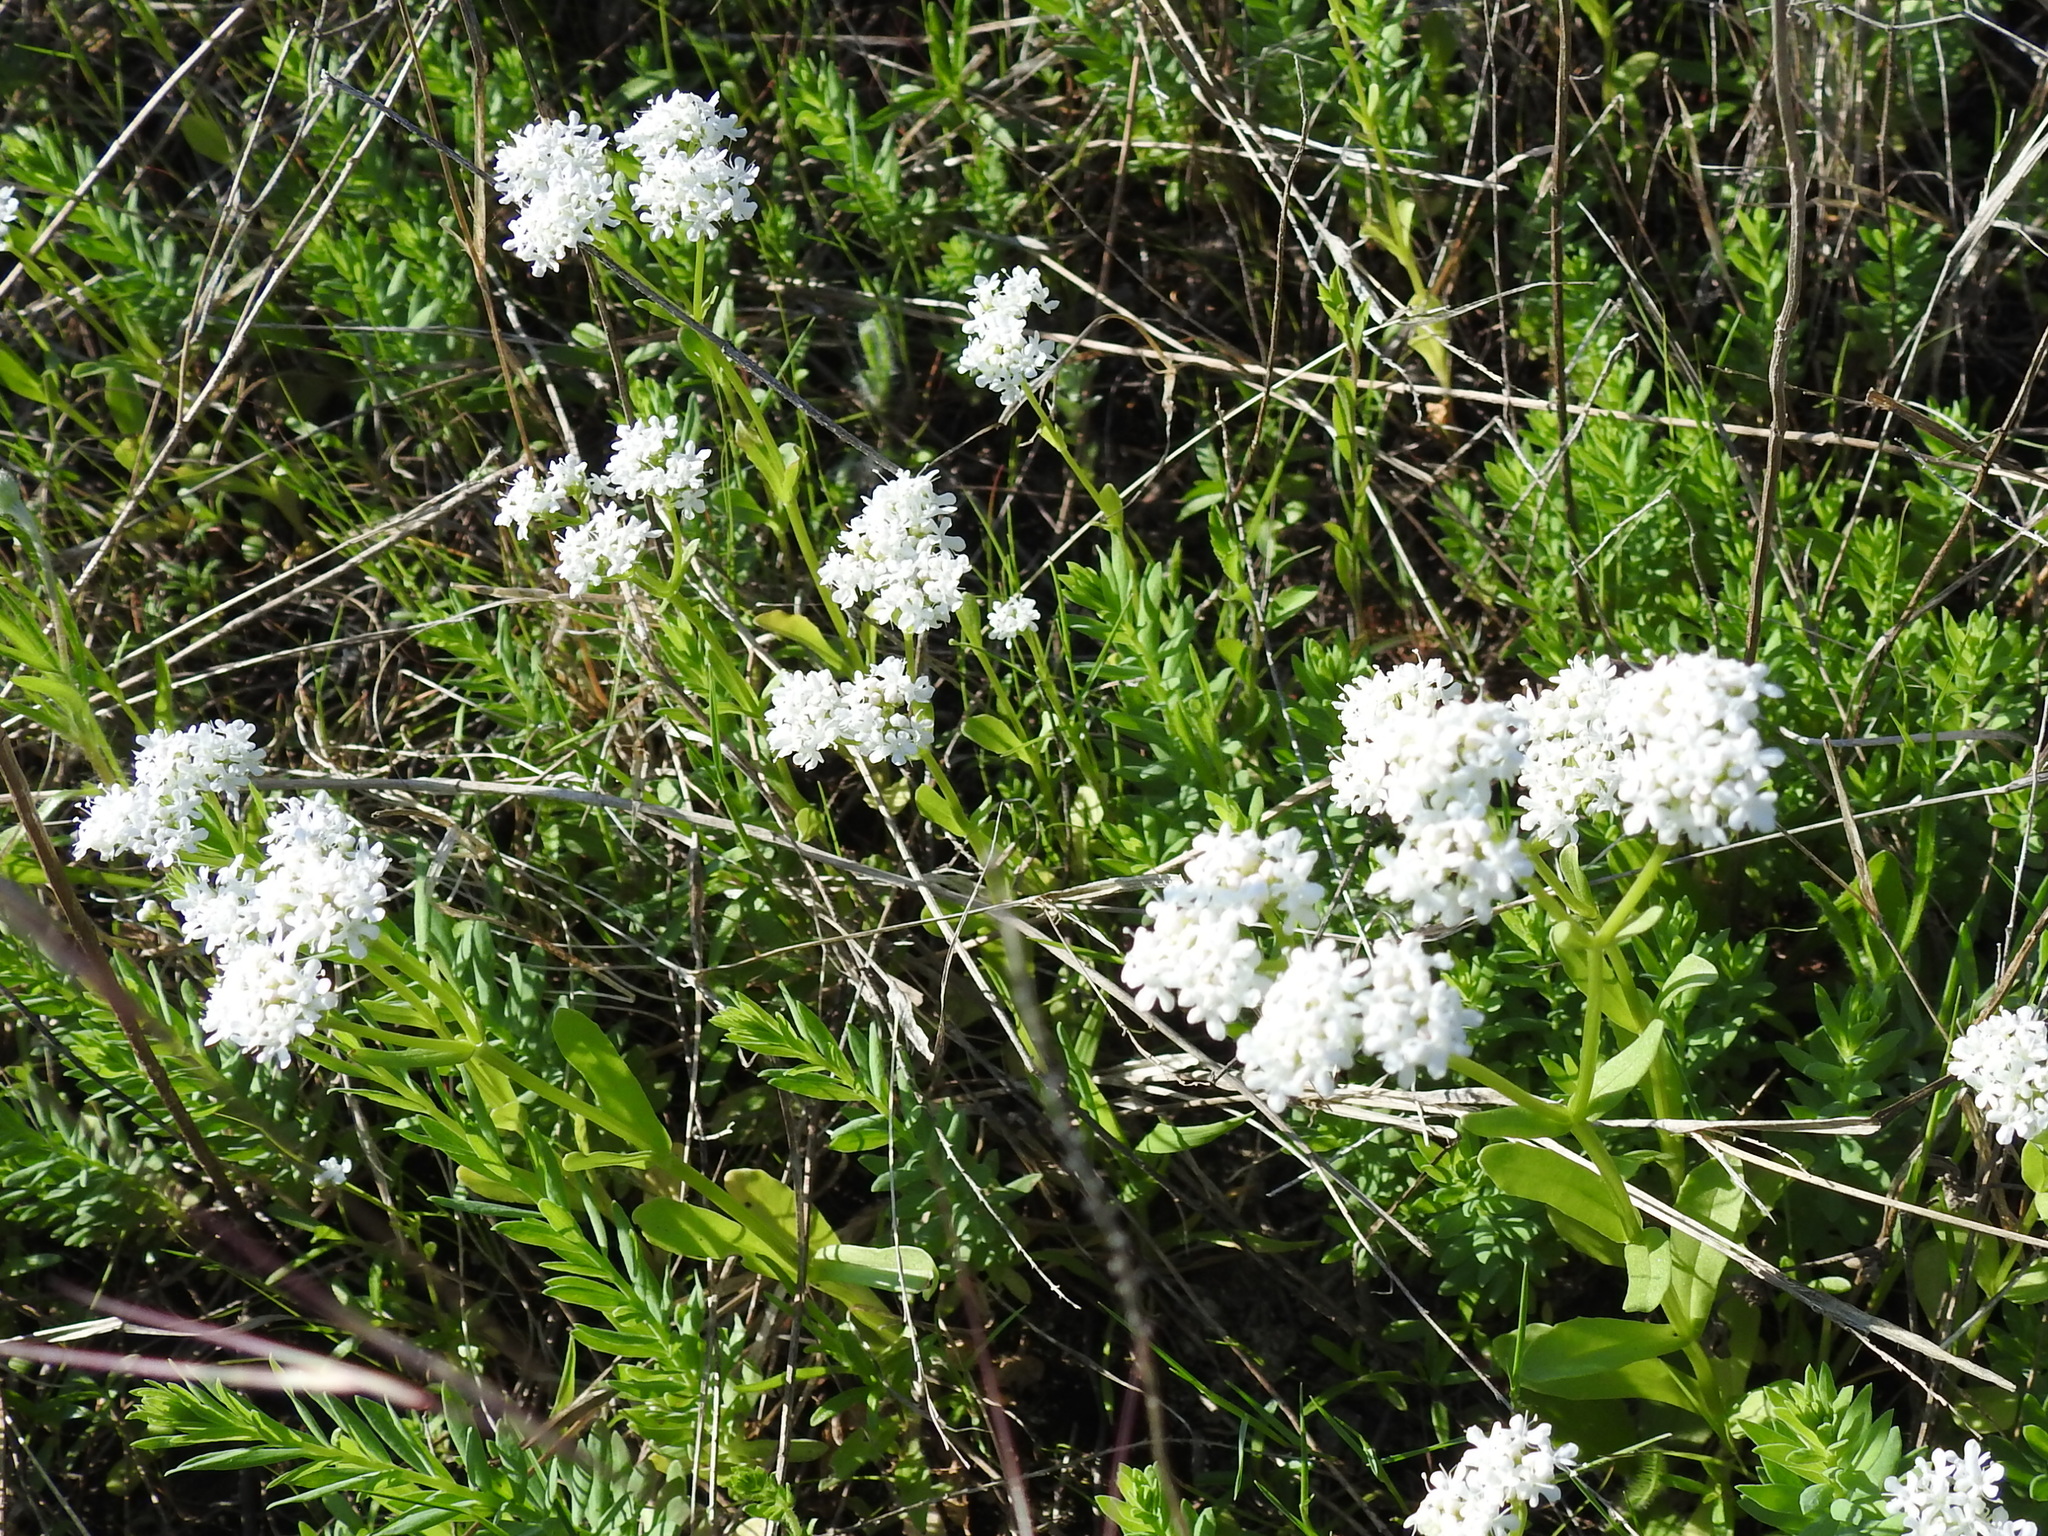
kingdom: Plantae
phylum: Tracheophyta
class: Magnoliopsida
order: Dipsacales
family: Caprifoliaceae
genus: Valerianella
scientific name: Valerianella amarella
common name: Hariy cornsalad
